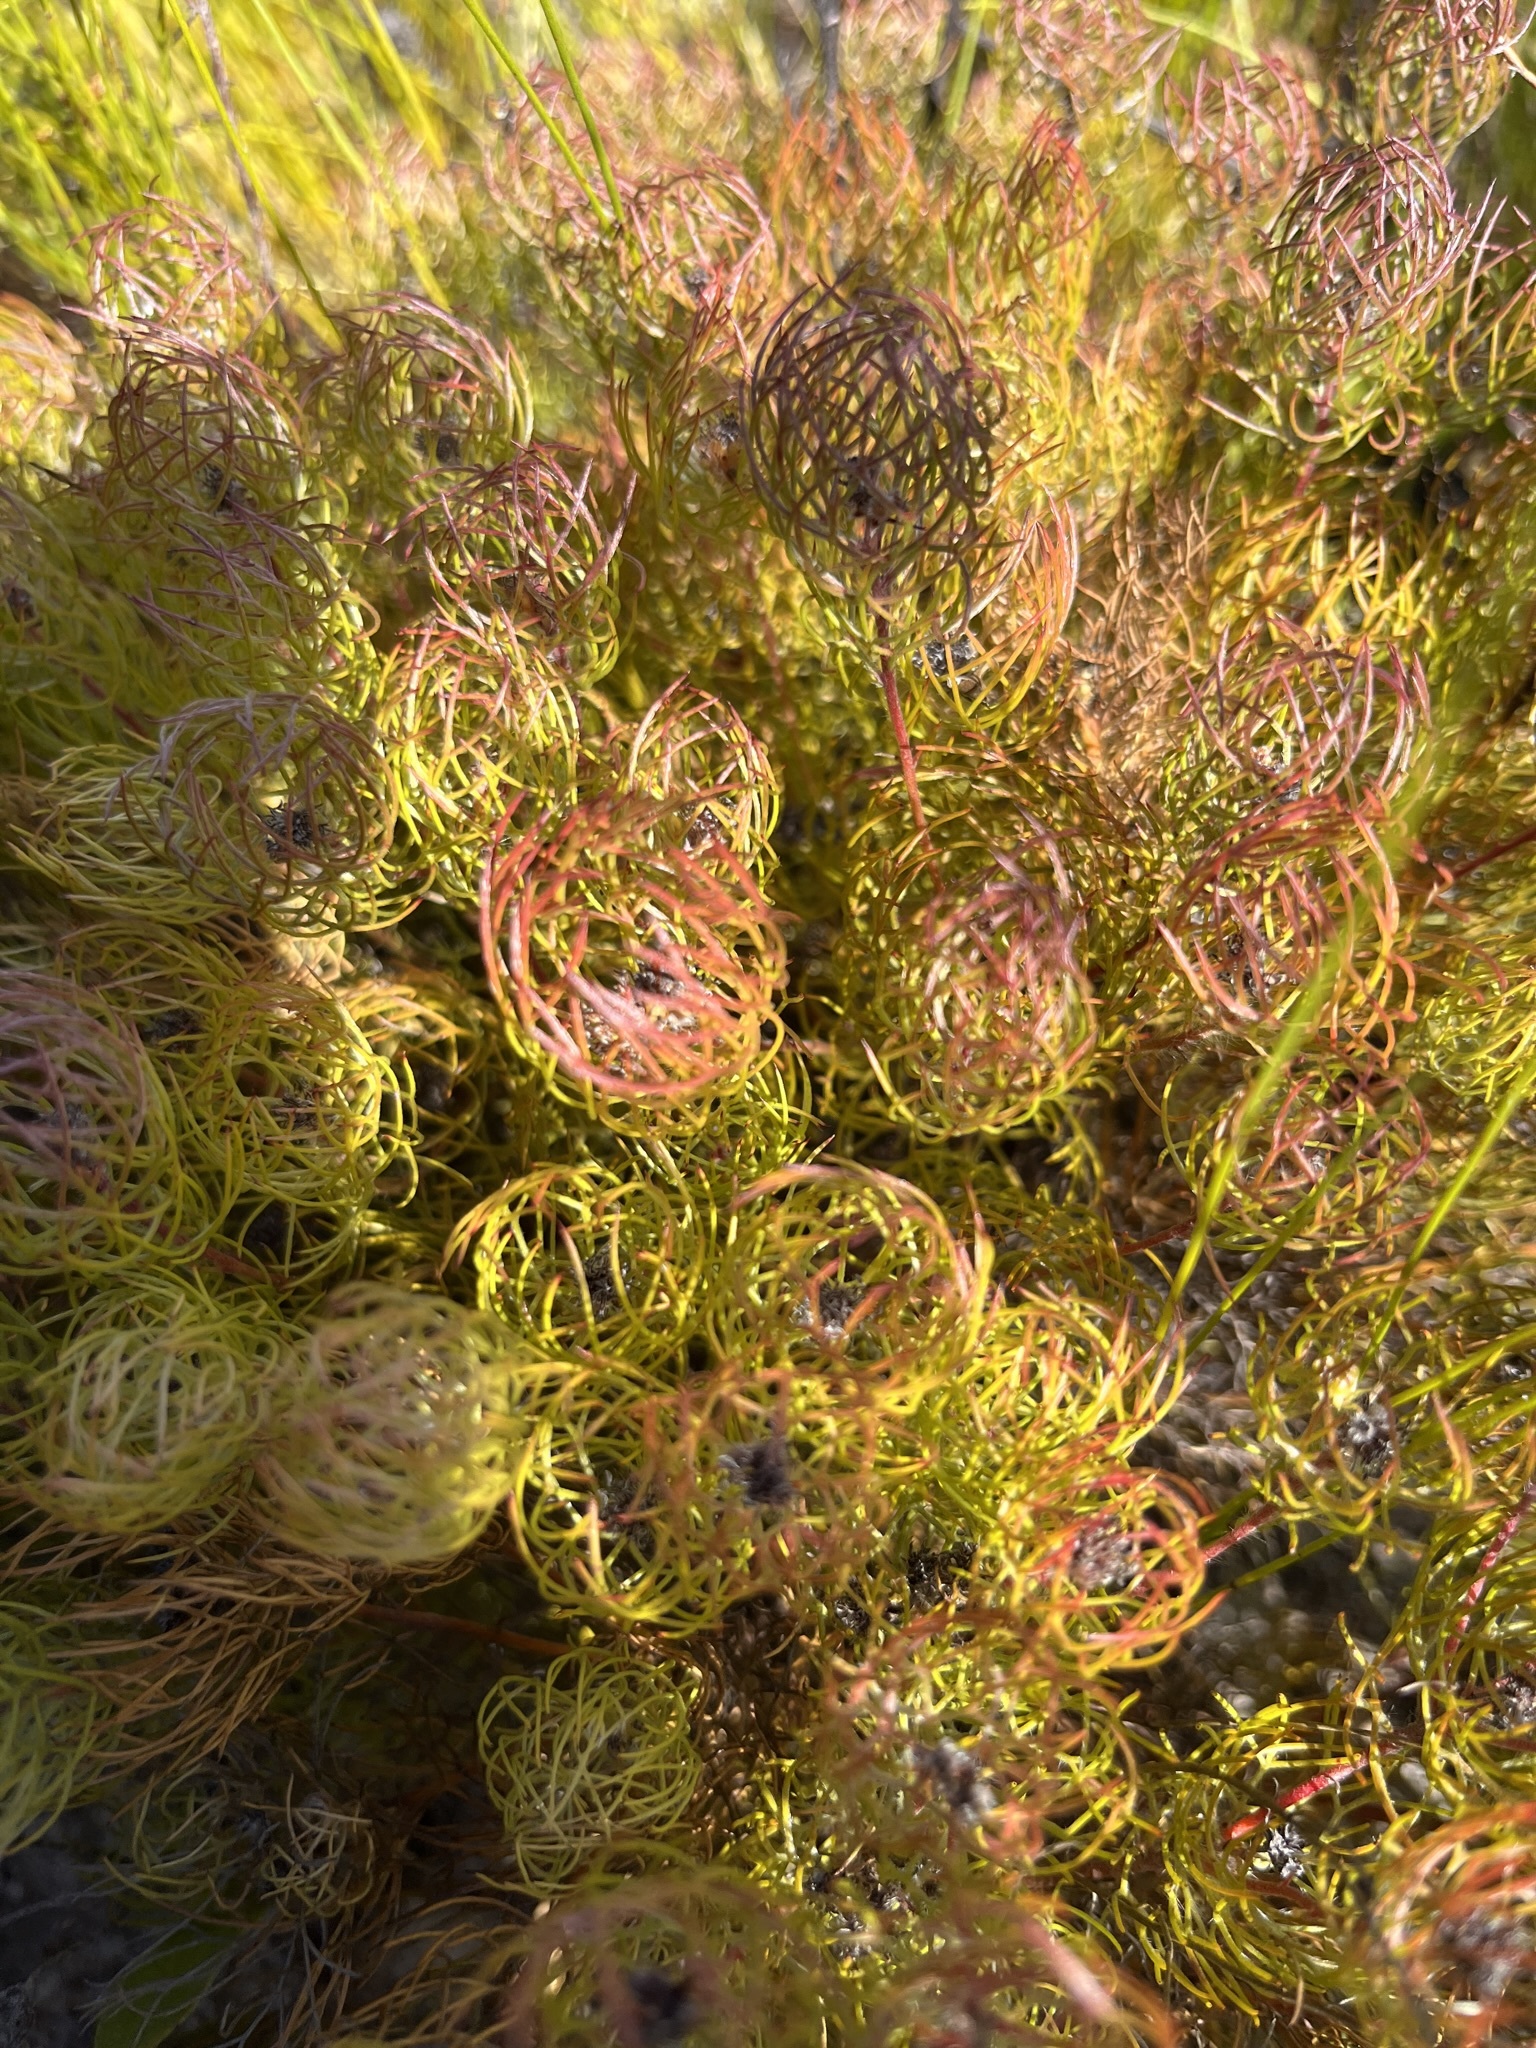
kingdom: Plantae
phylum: Tracheophyta
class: Magnoliopsida
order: Proteales
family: Proteaceae
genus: Serruria
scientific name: Serruria inconspicua
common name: Cryptic spiderhead
